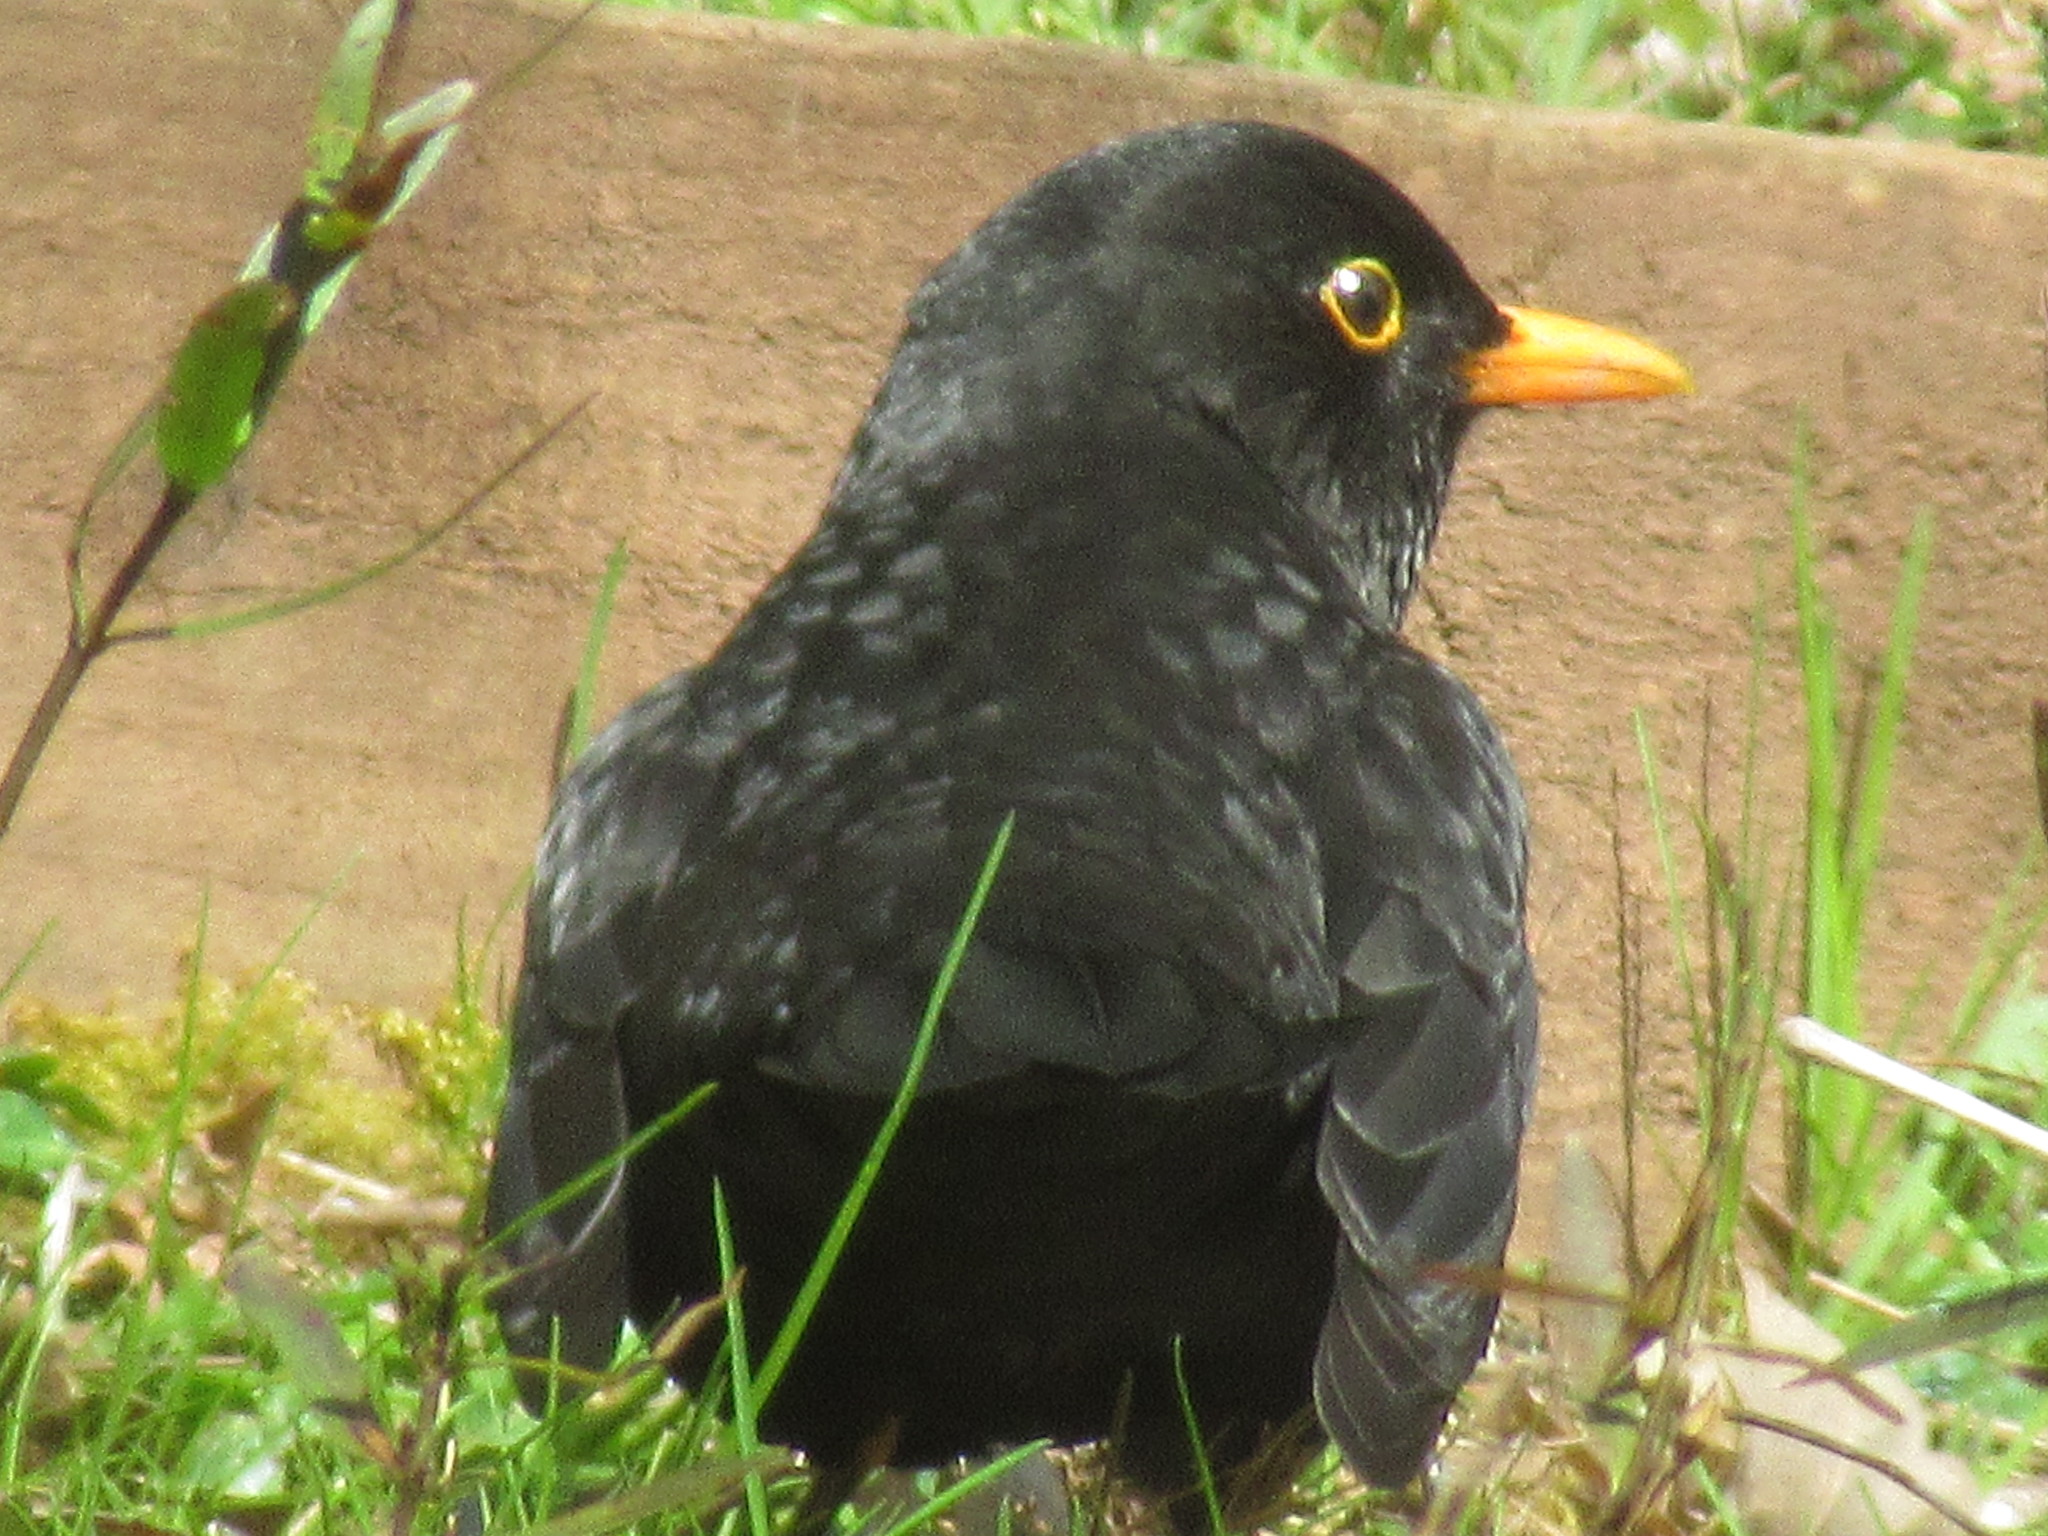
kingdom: Animalia
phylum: Chordata
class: Aves
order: Passeriformes
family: Turdidae
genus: Turdus
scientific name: Turdus merula
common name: Common blackbird
